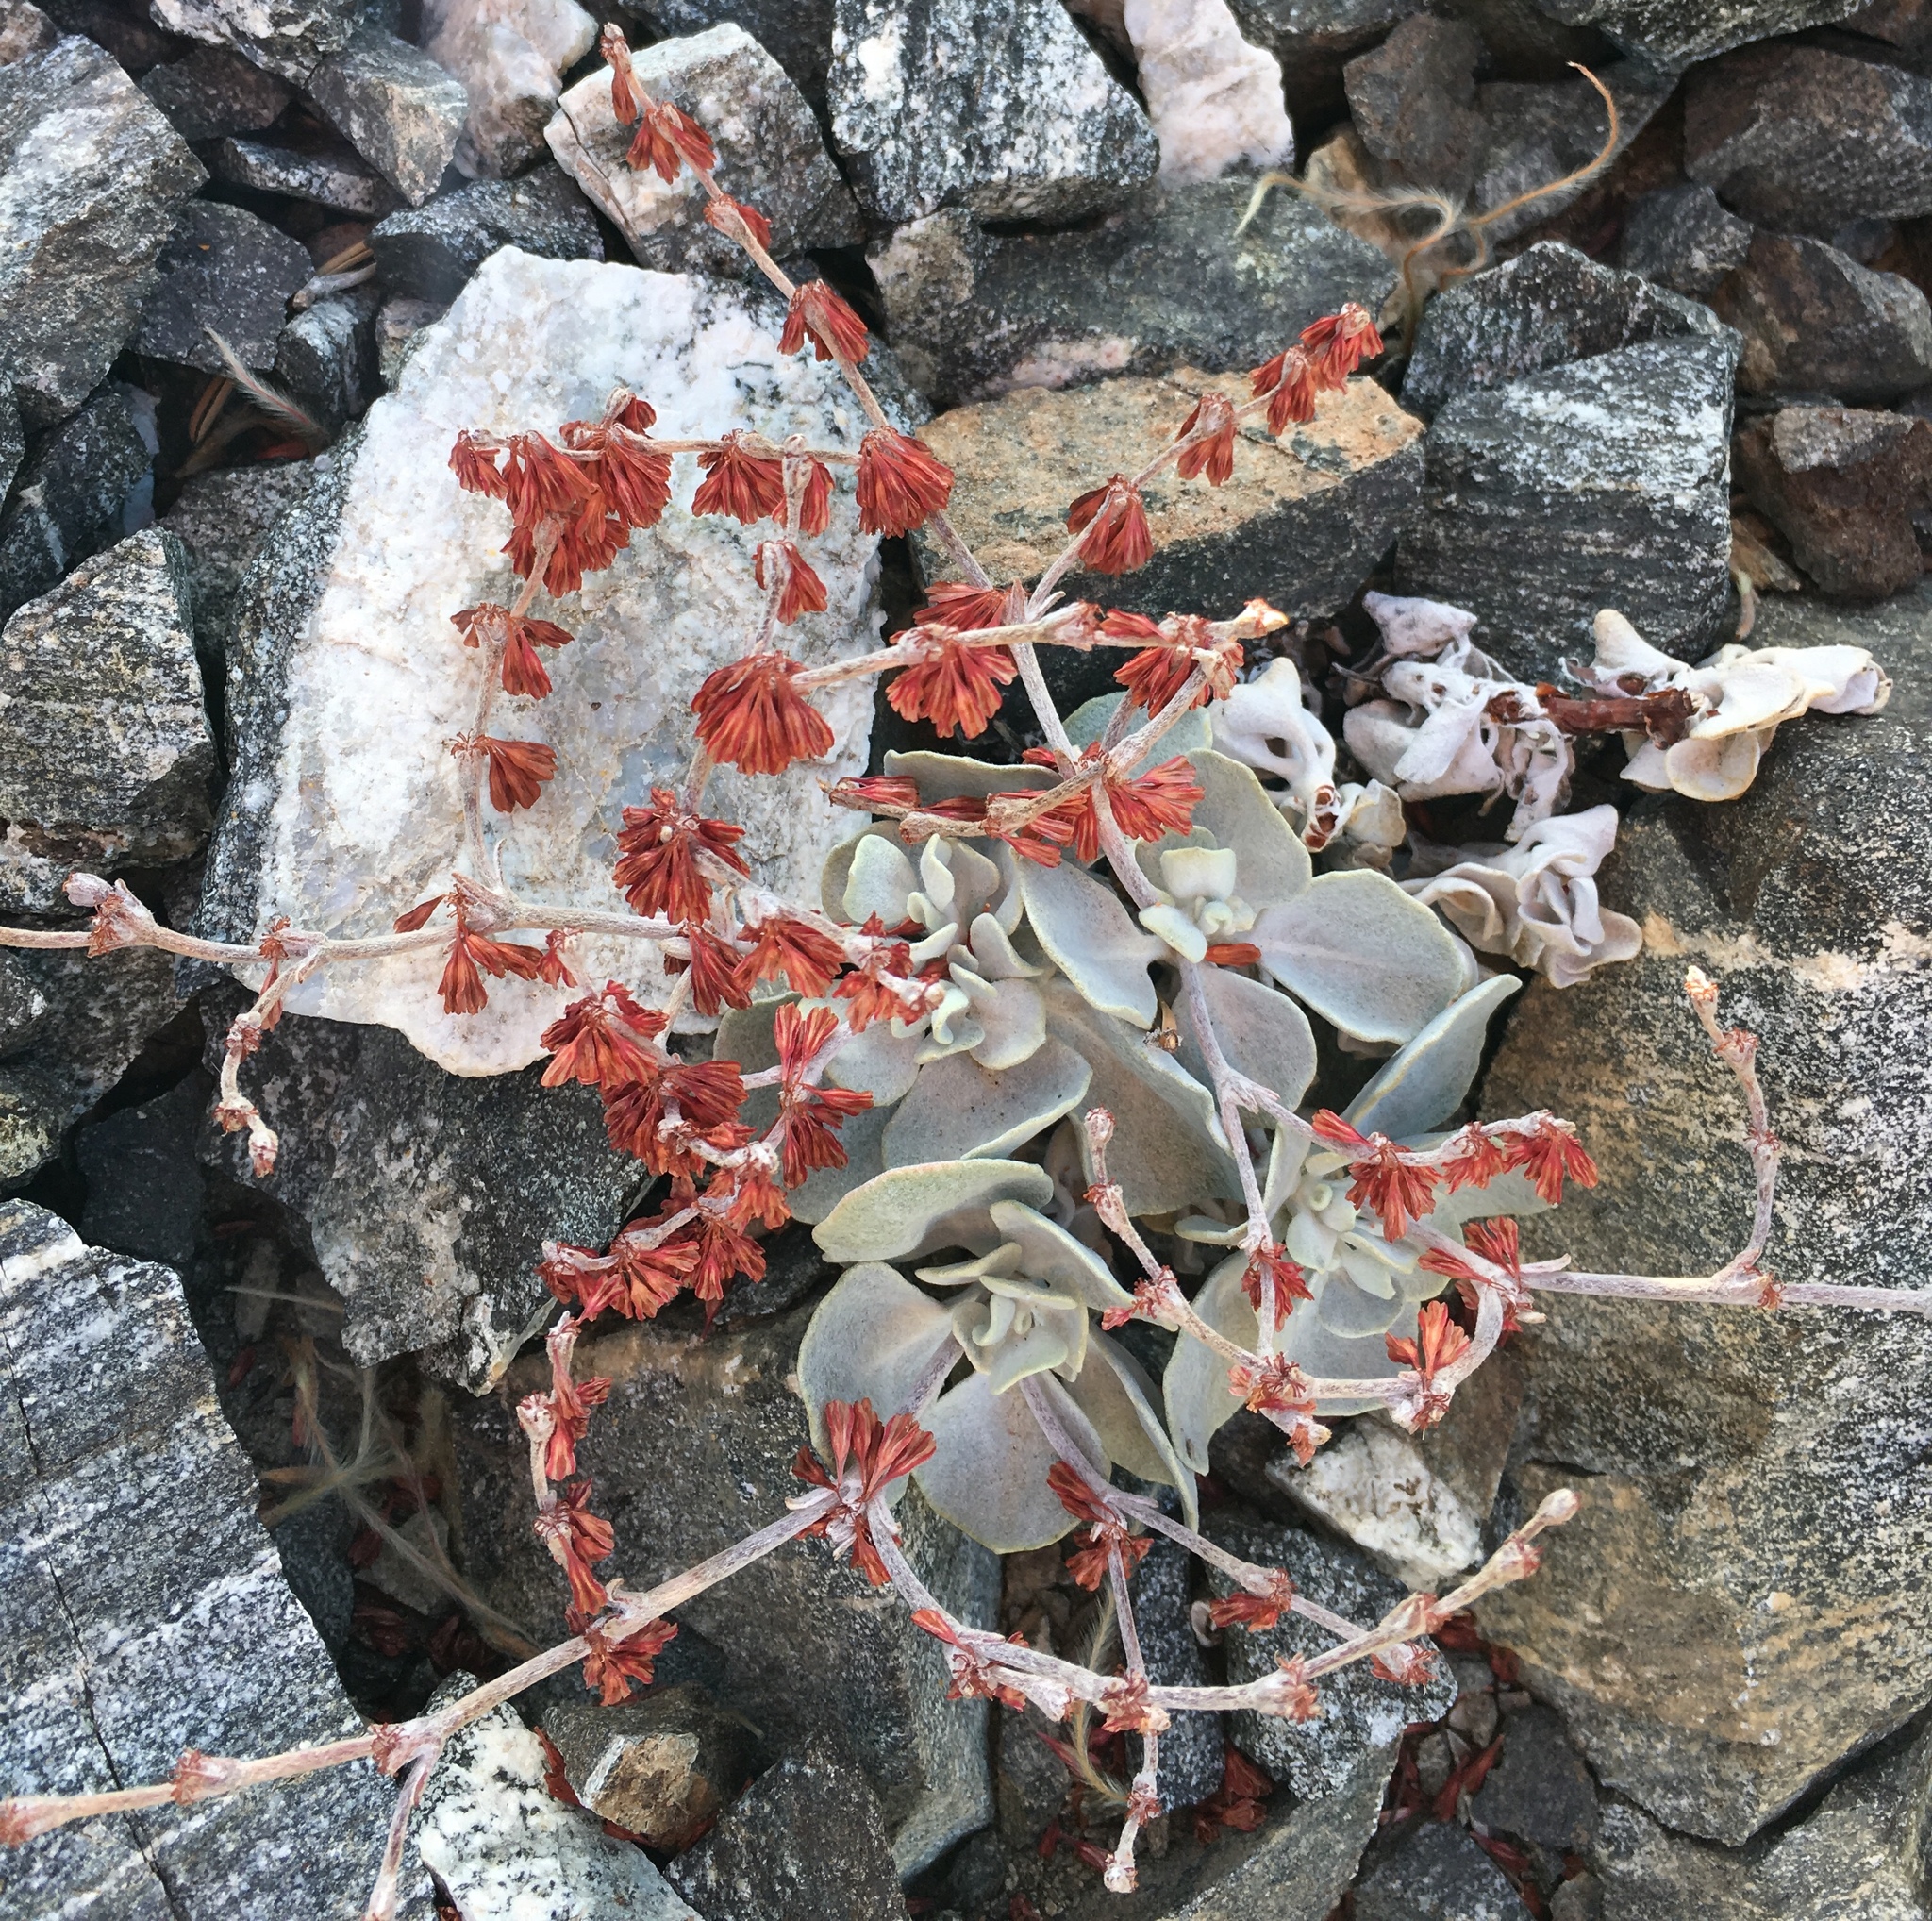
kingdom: Plantae
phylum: Tracheophyta
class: Magnoliopsida
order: Caryophyllales
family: Polygonaceae
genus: Eriogonum
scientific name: Eriogonum saxatile
